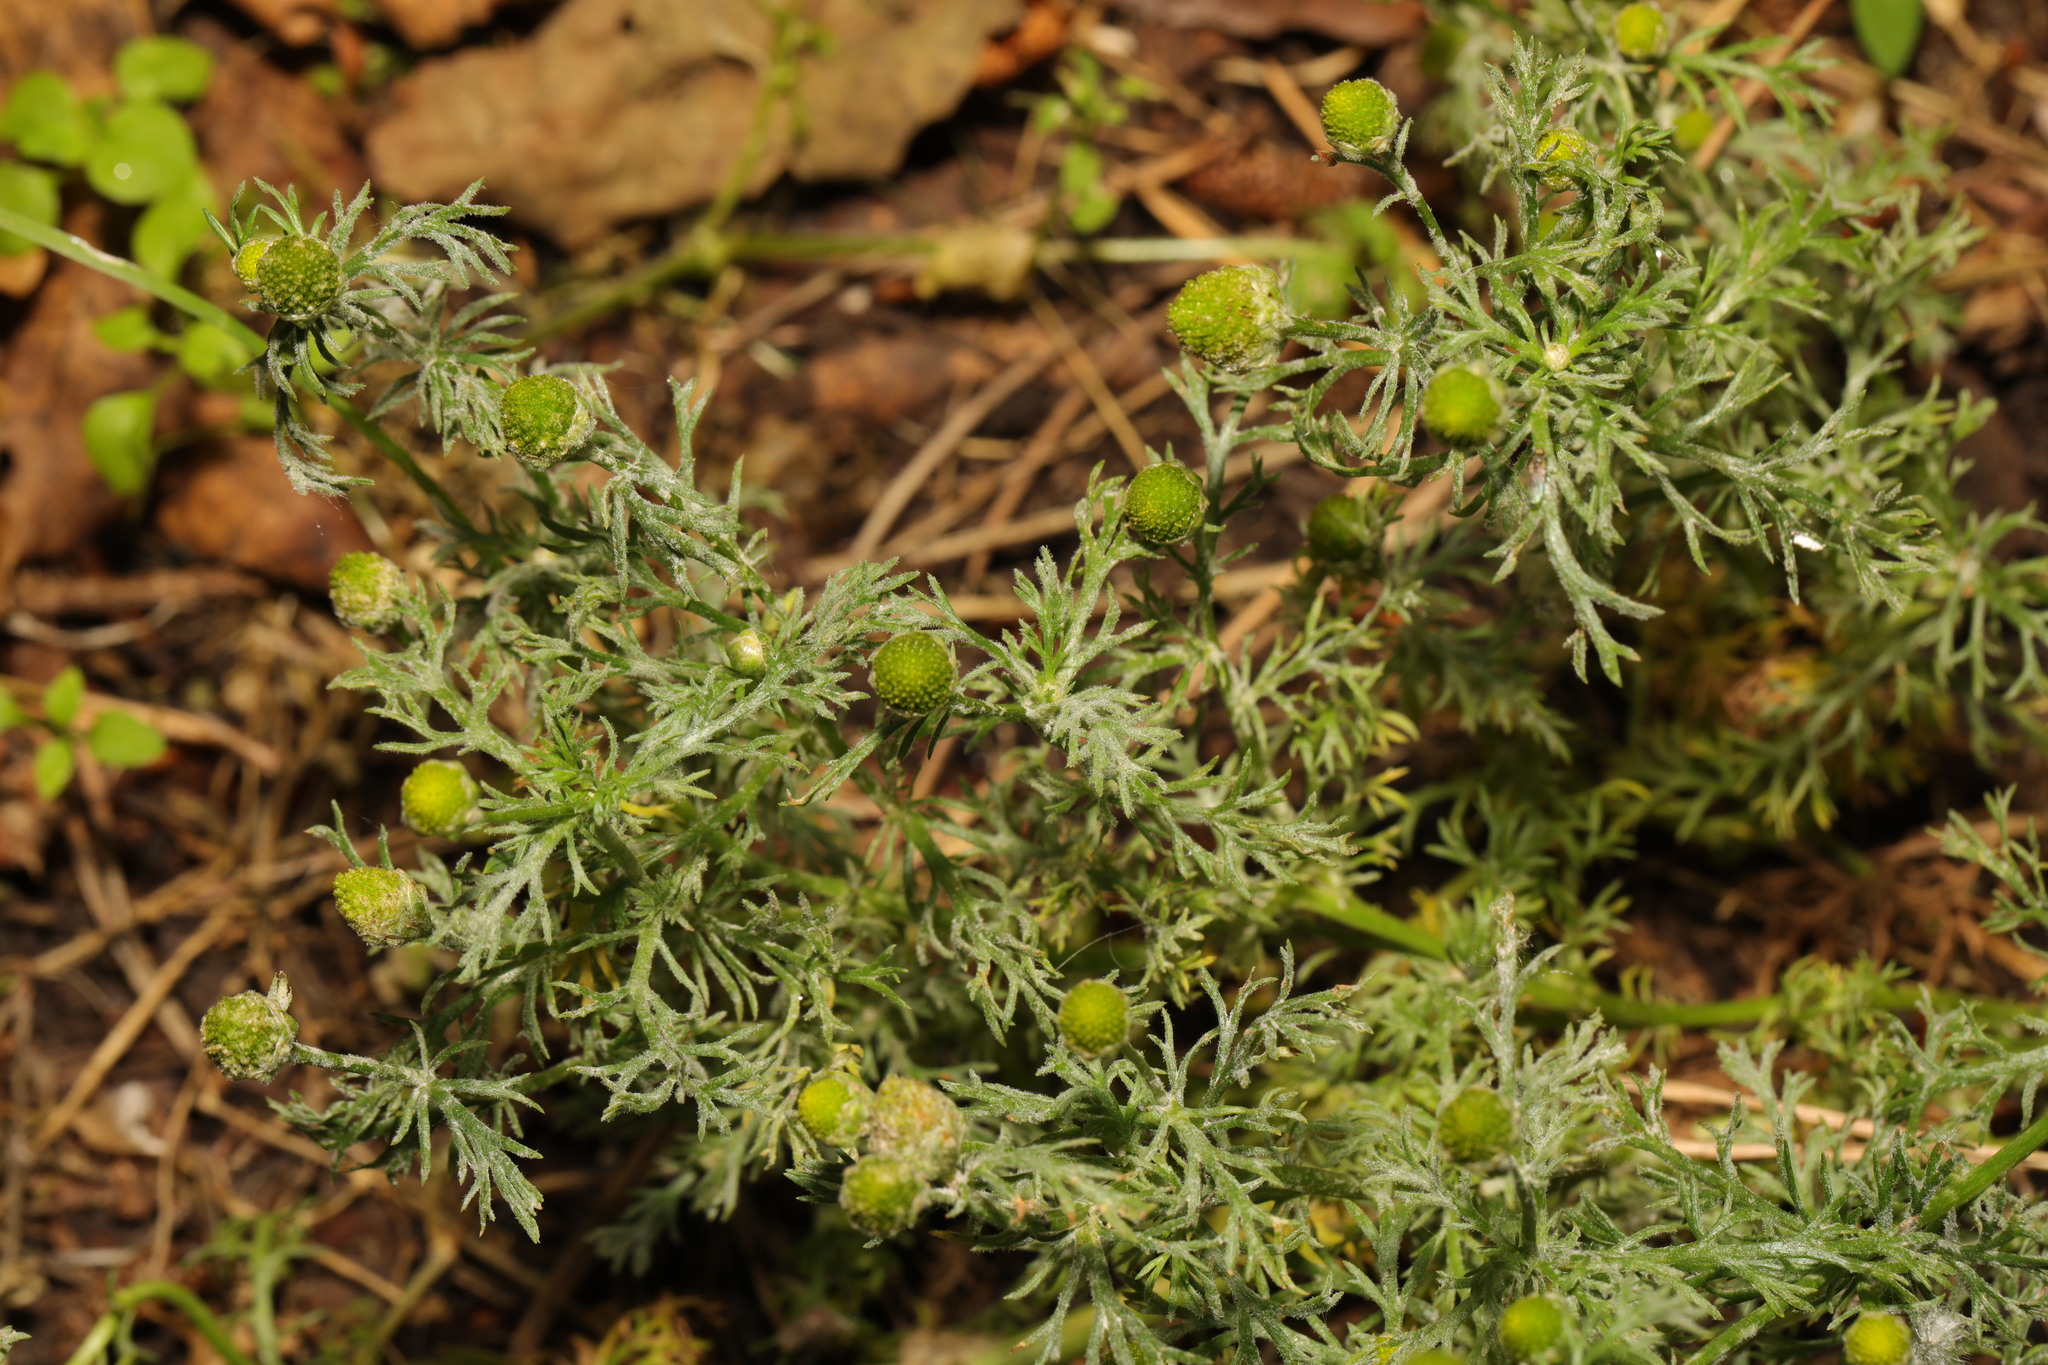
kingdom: Plantae
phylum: Tracheophyta
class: Magnoliopsida
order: Asterales
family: Asteraceae
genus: Matricaria
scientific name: Matricaria discoidea
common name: Disc mayweed
